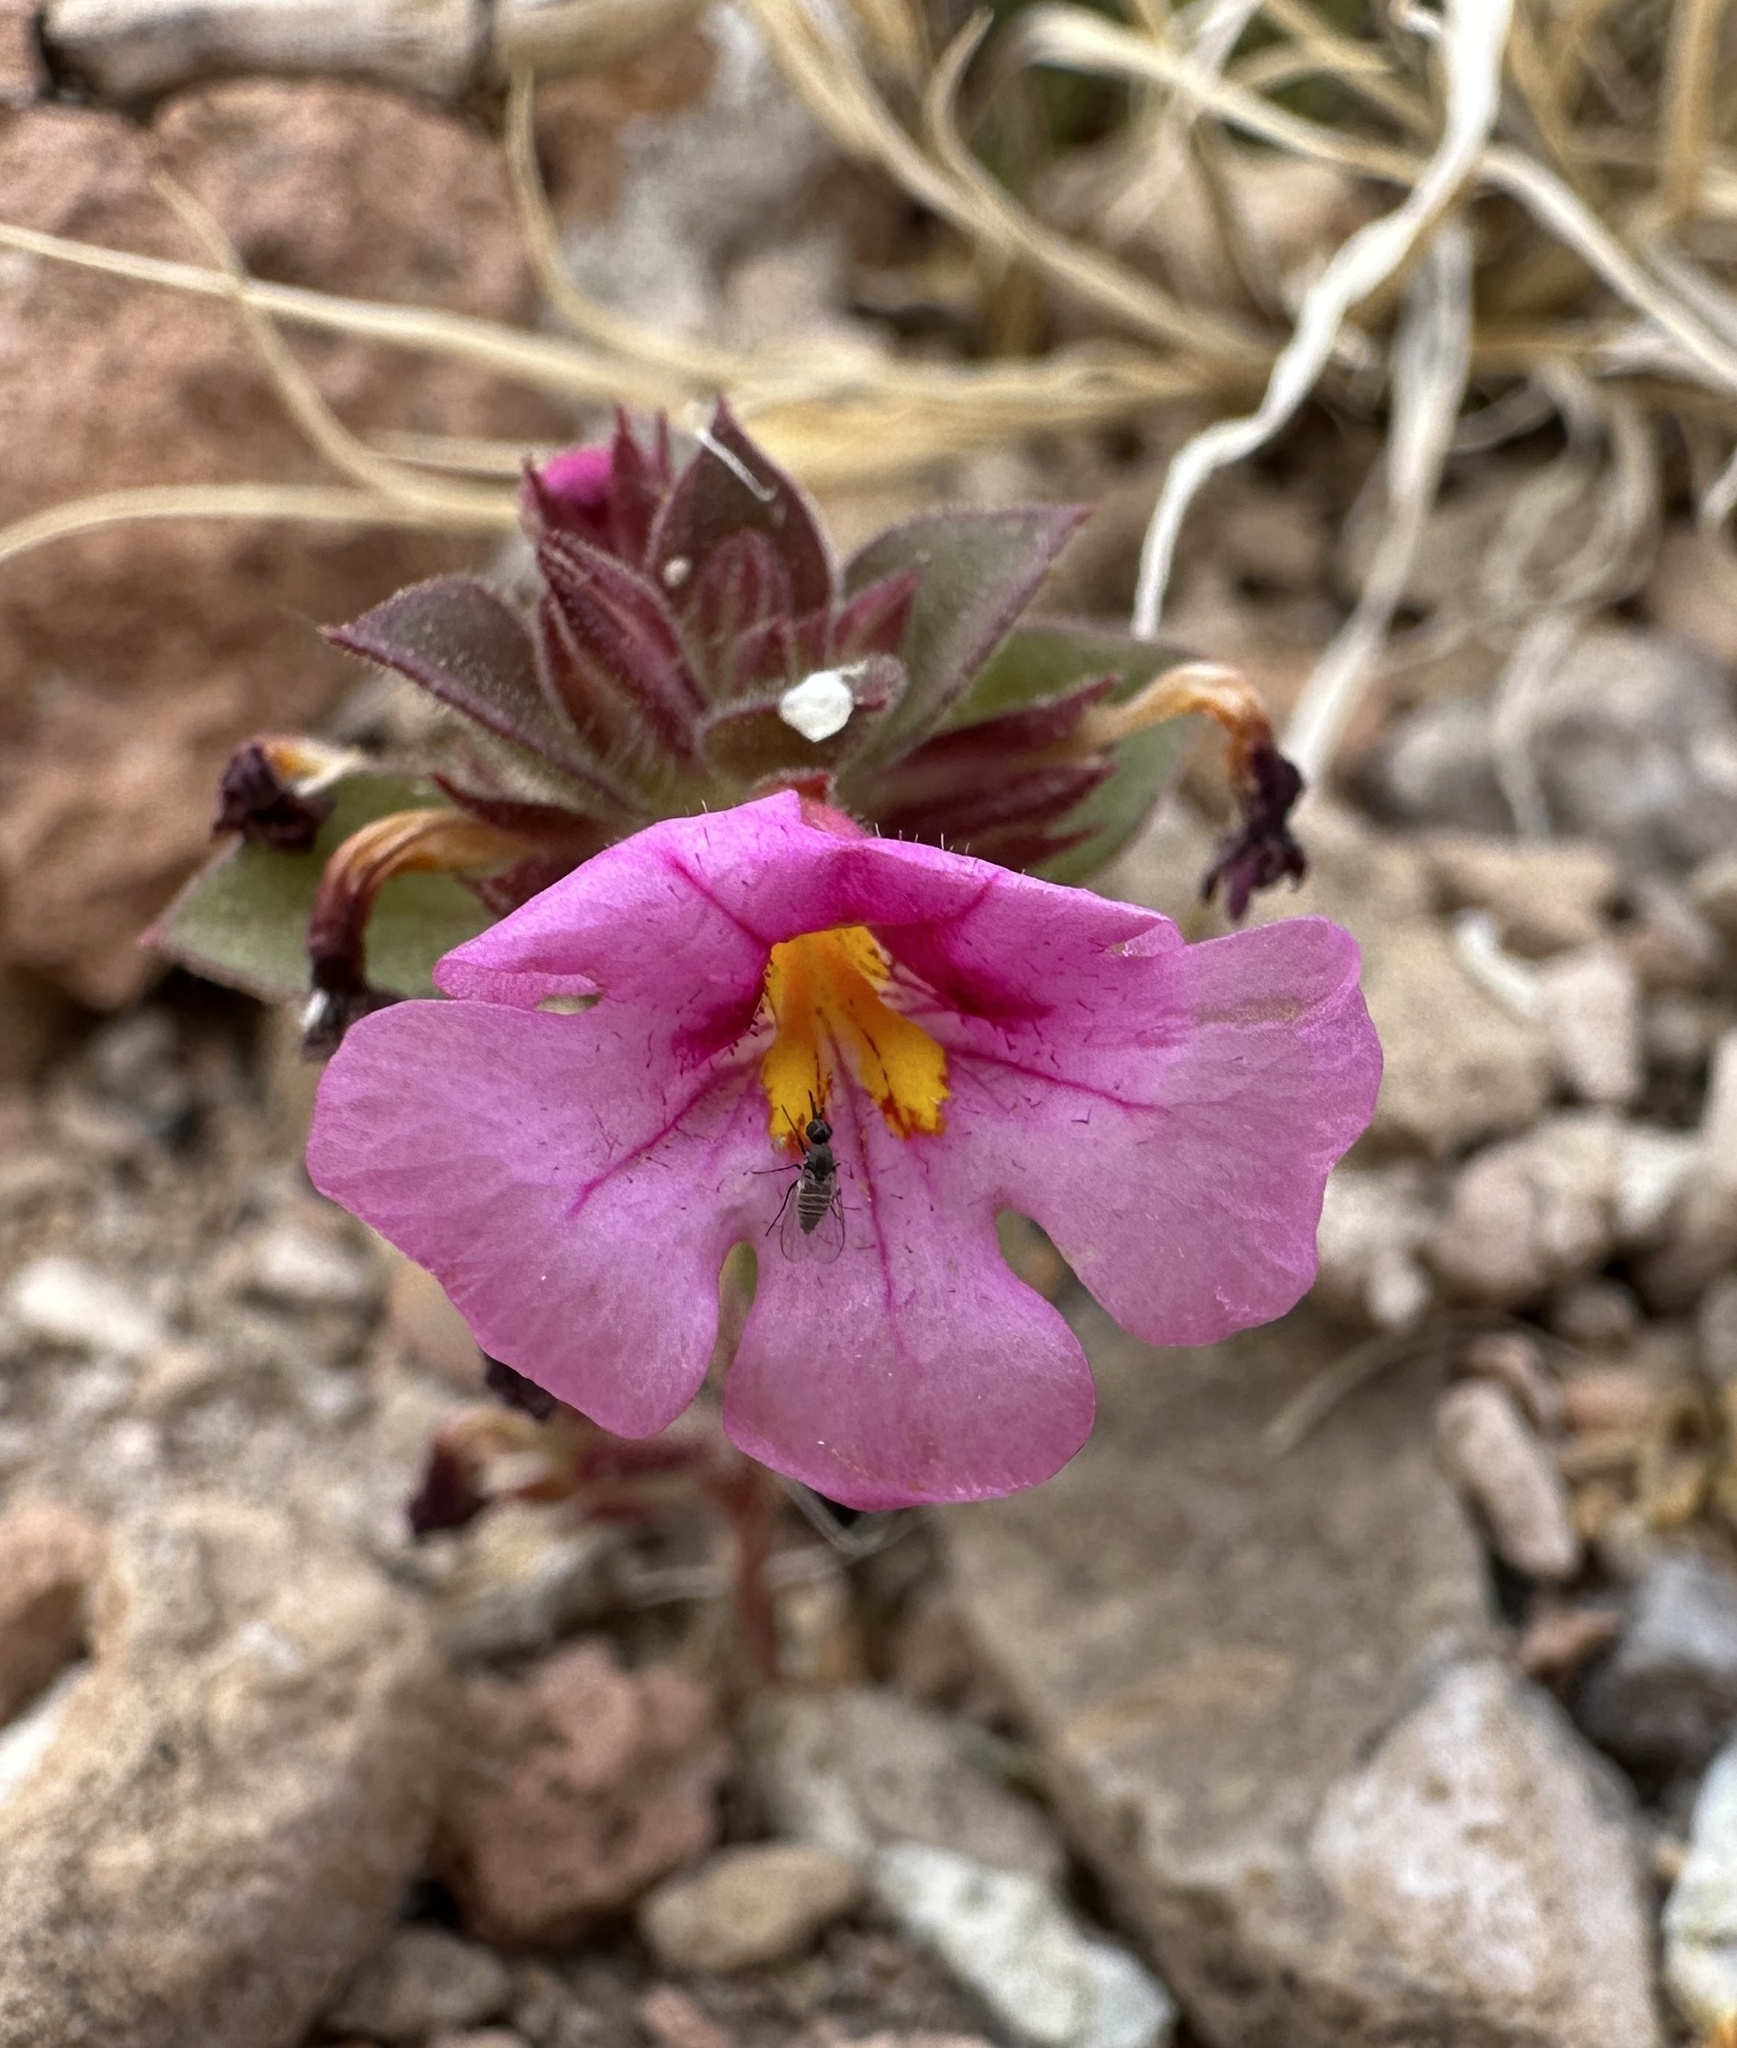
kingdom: Plantae
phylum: Tracheophyta
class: Magnoliopsida
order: Lamiales
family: Phrymaceae
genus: Diplacus
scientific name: Diplacus bigelovii
